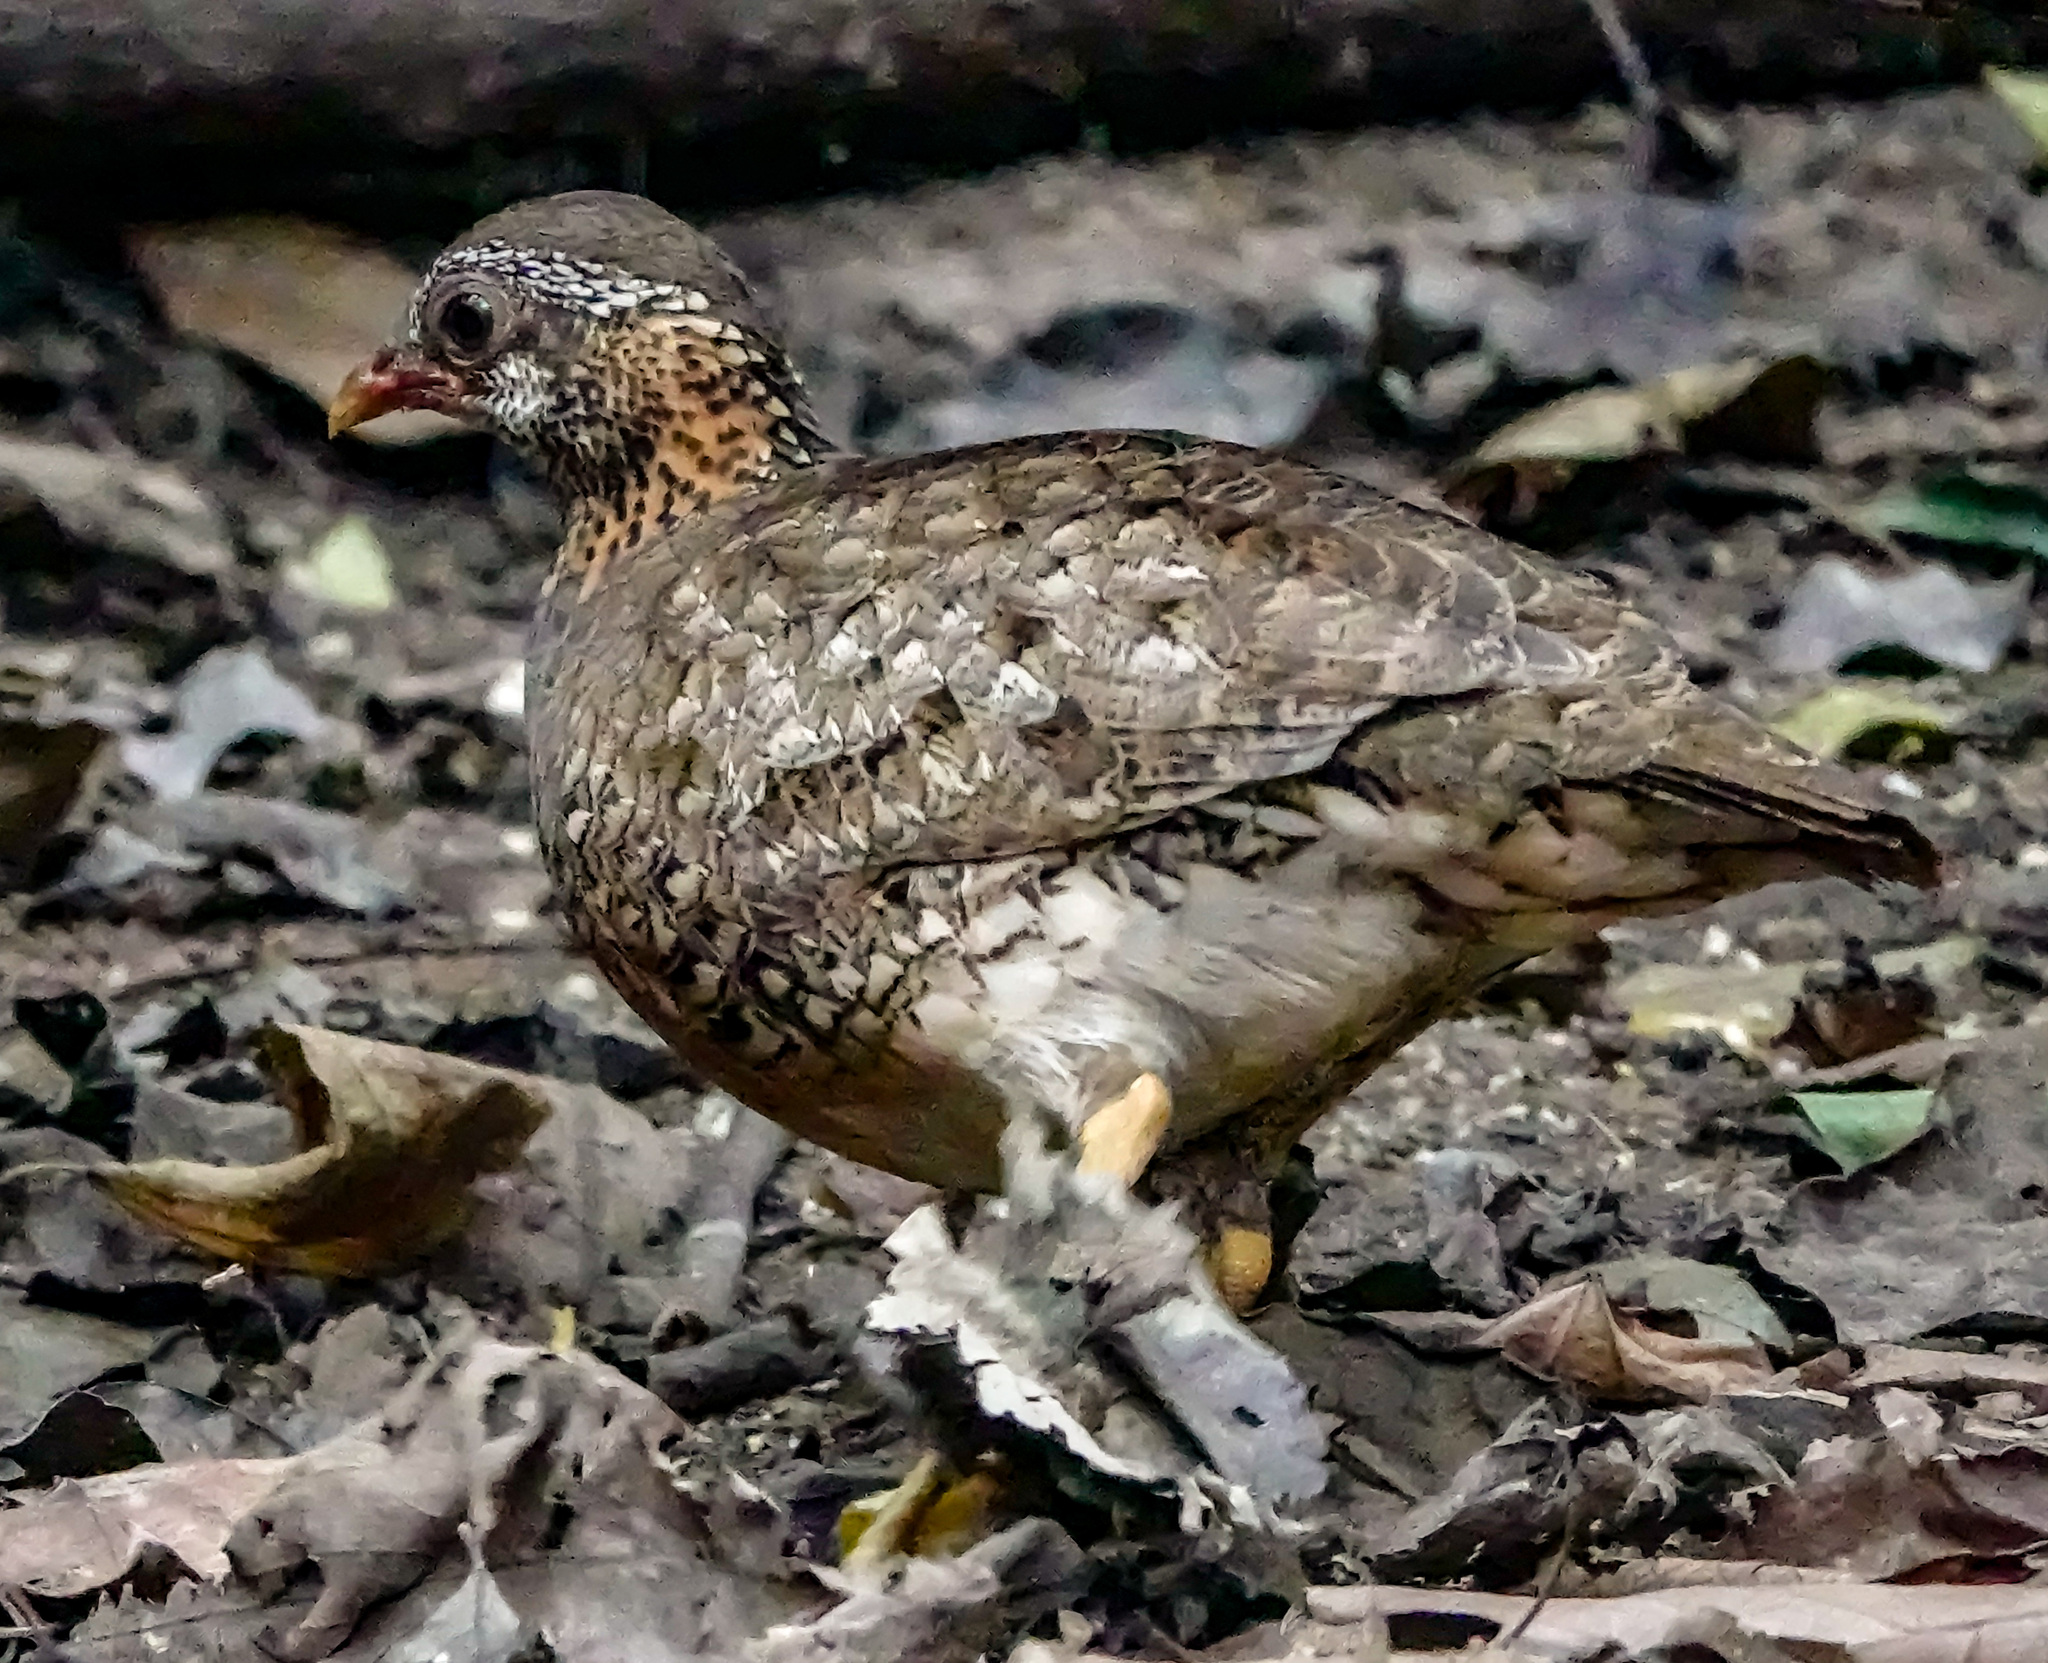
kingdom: Animalia
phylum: Chordata
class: Aves
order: Galliformes
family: Phasianidae
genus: Tropicoperdix
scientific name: Tropicoperdix chloropus
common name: Green-legged partridge
